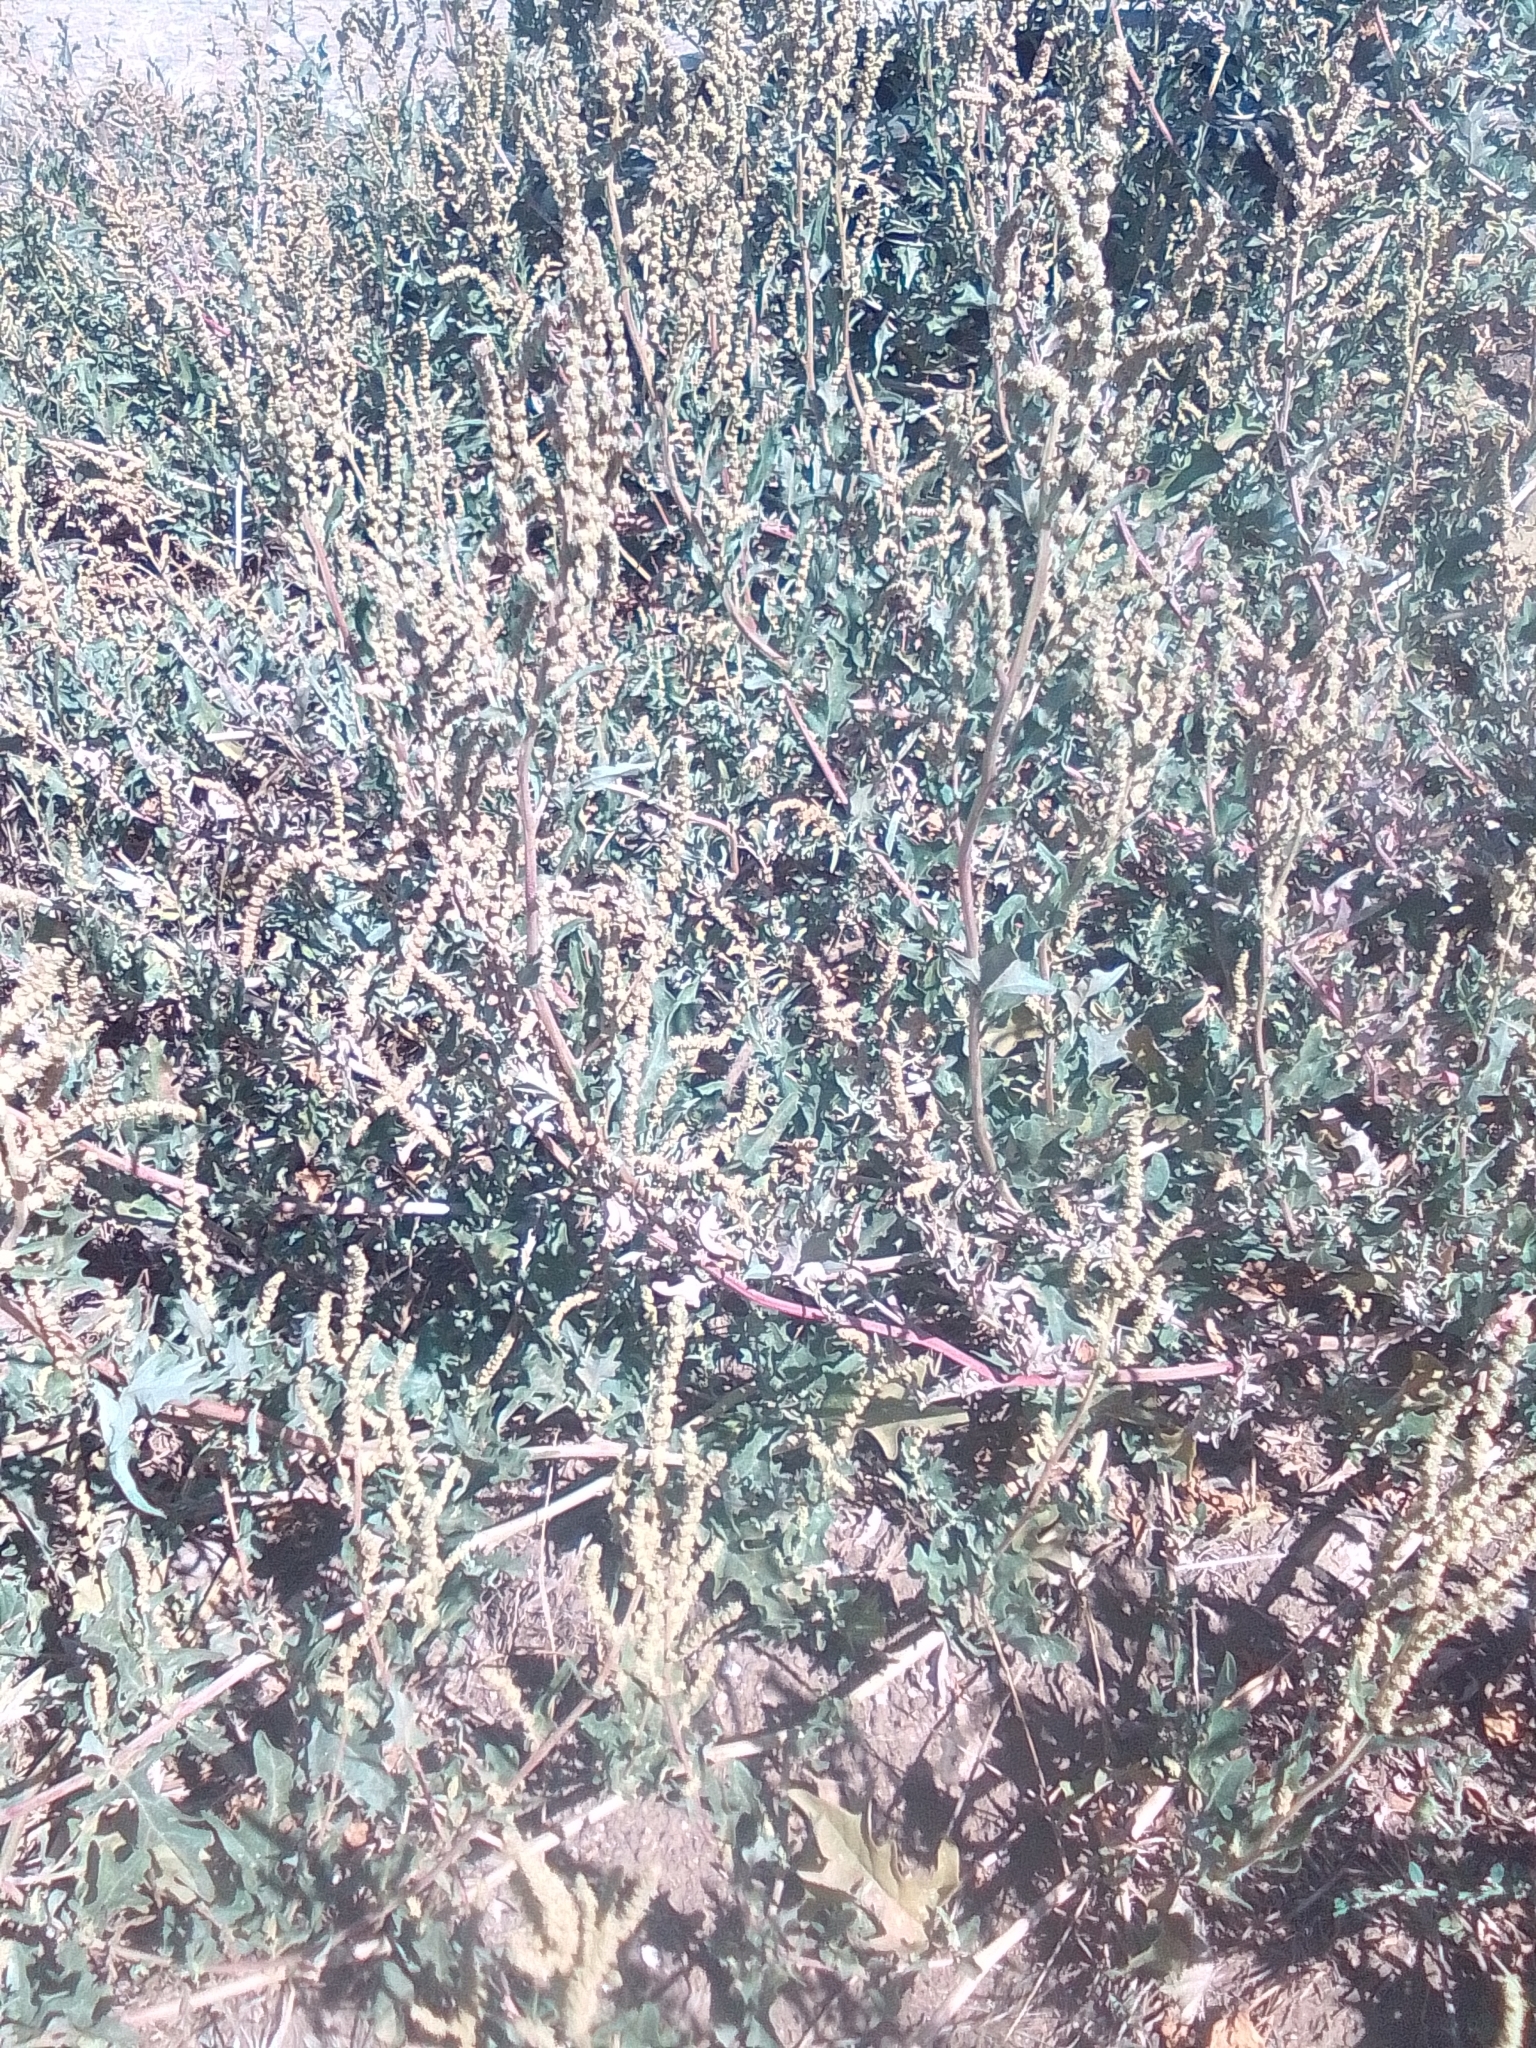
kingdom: Plantae
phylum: Tracheophyta
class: Magnoliopsida
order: Caryophyllales
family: Amaranthaceae
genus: Atriplex
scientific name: Atriplex tatarica
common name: Tatarian orache
